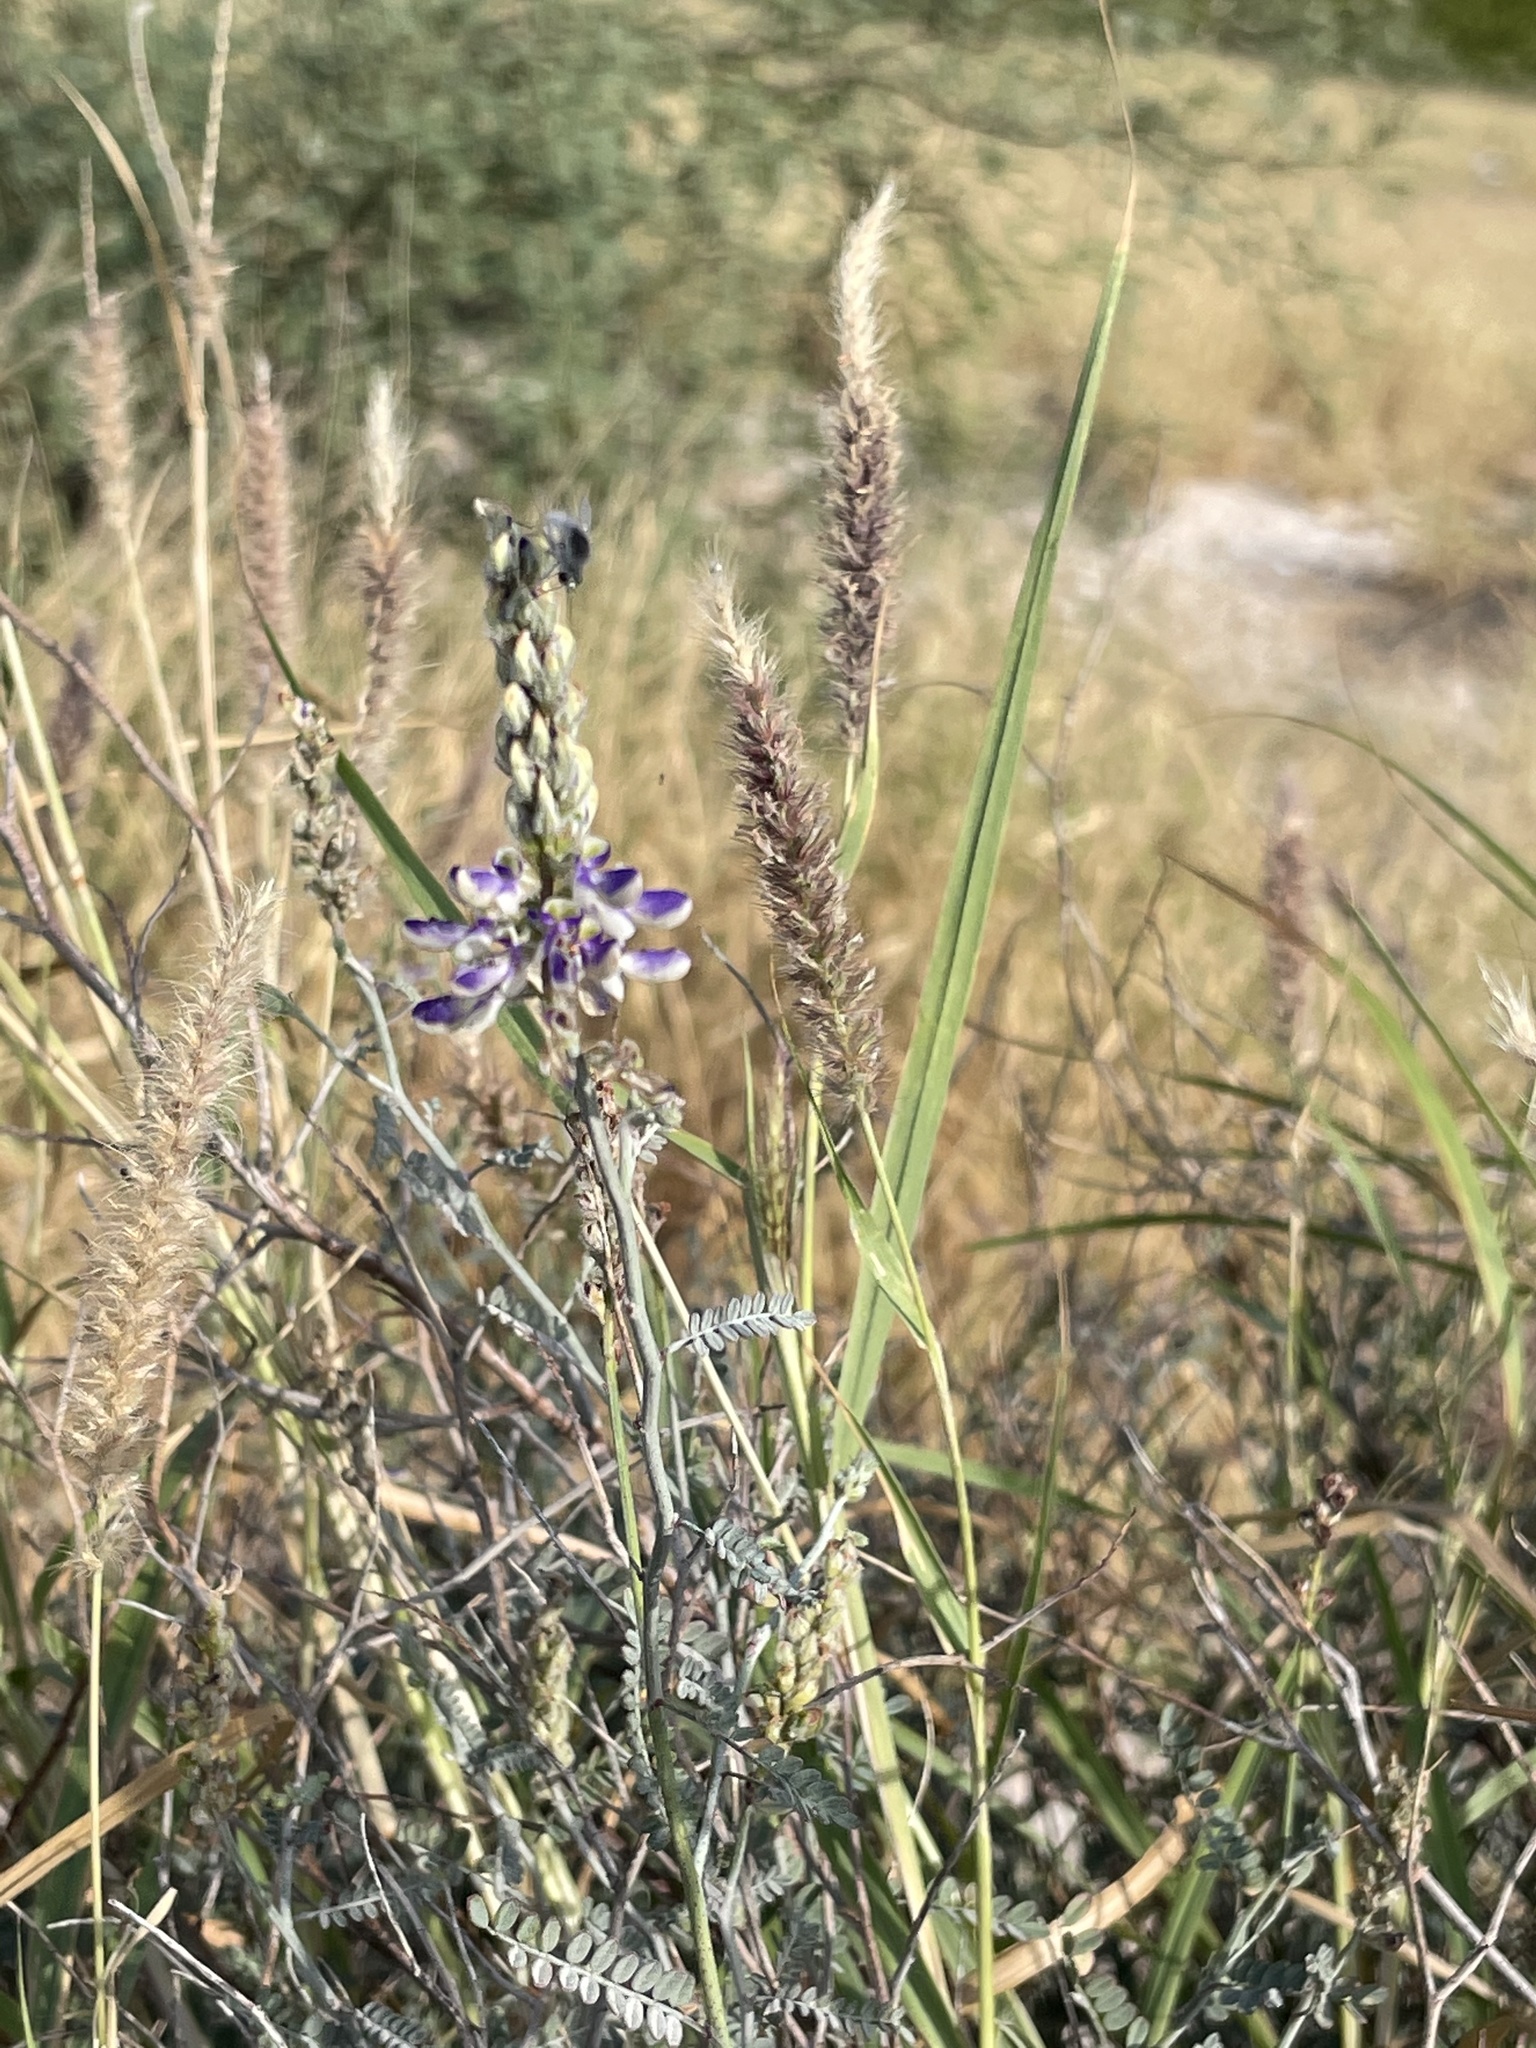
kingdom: Plantae
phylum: Tracheophyta
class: Magnoliopsida
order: Fabales
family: Fabaceae
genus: Marina
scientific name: Marina maritima
